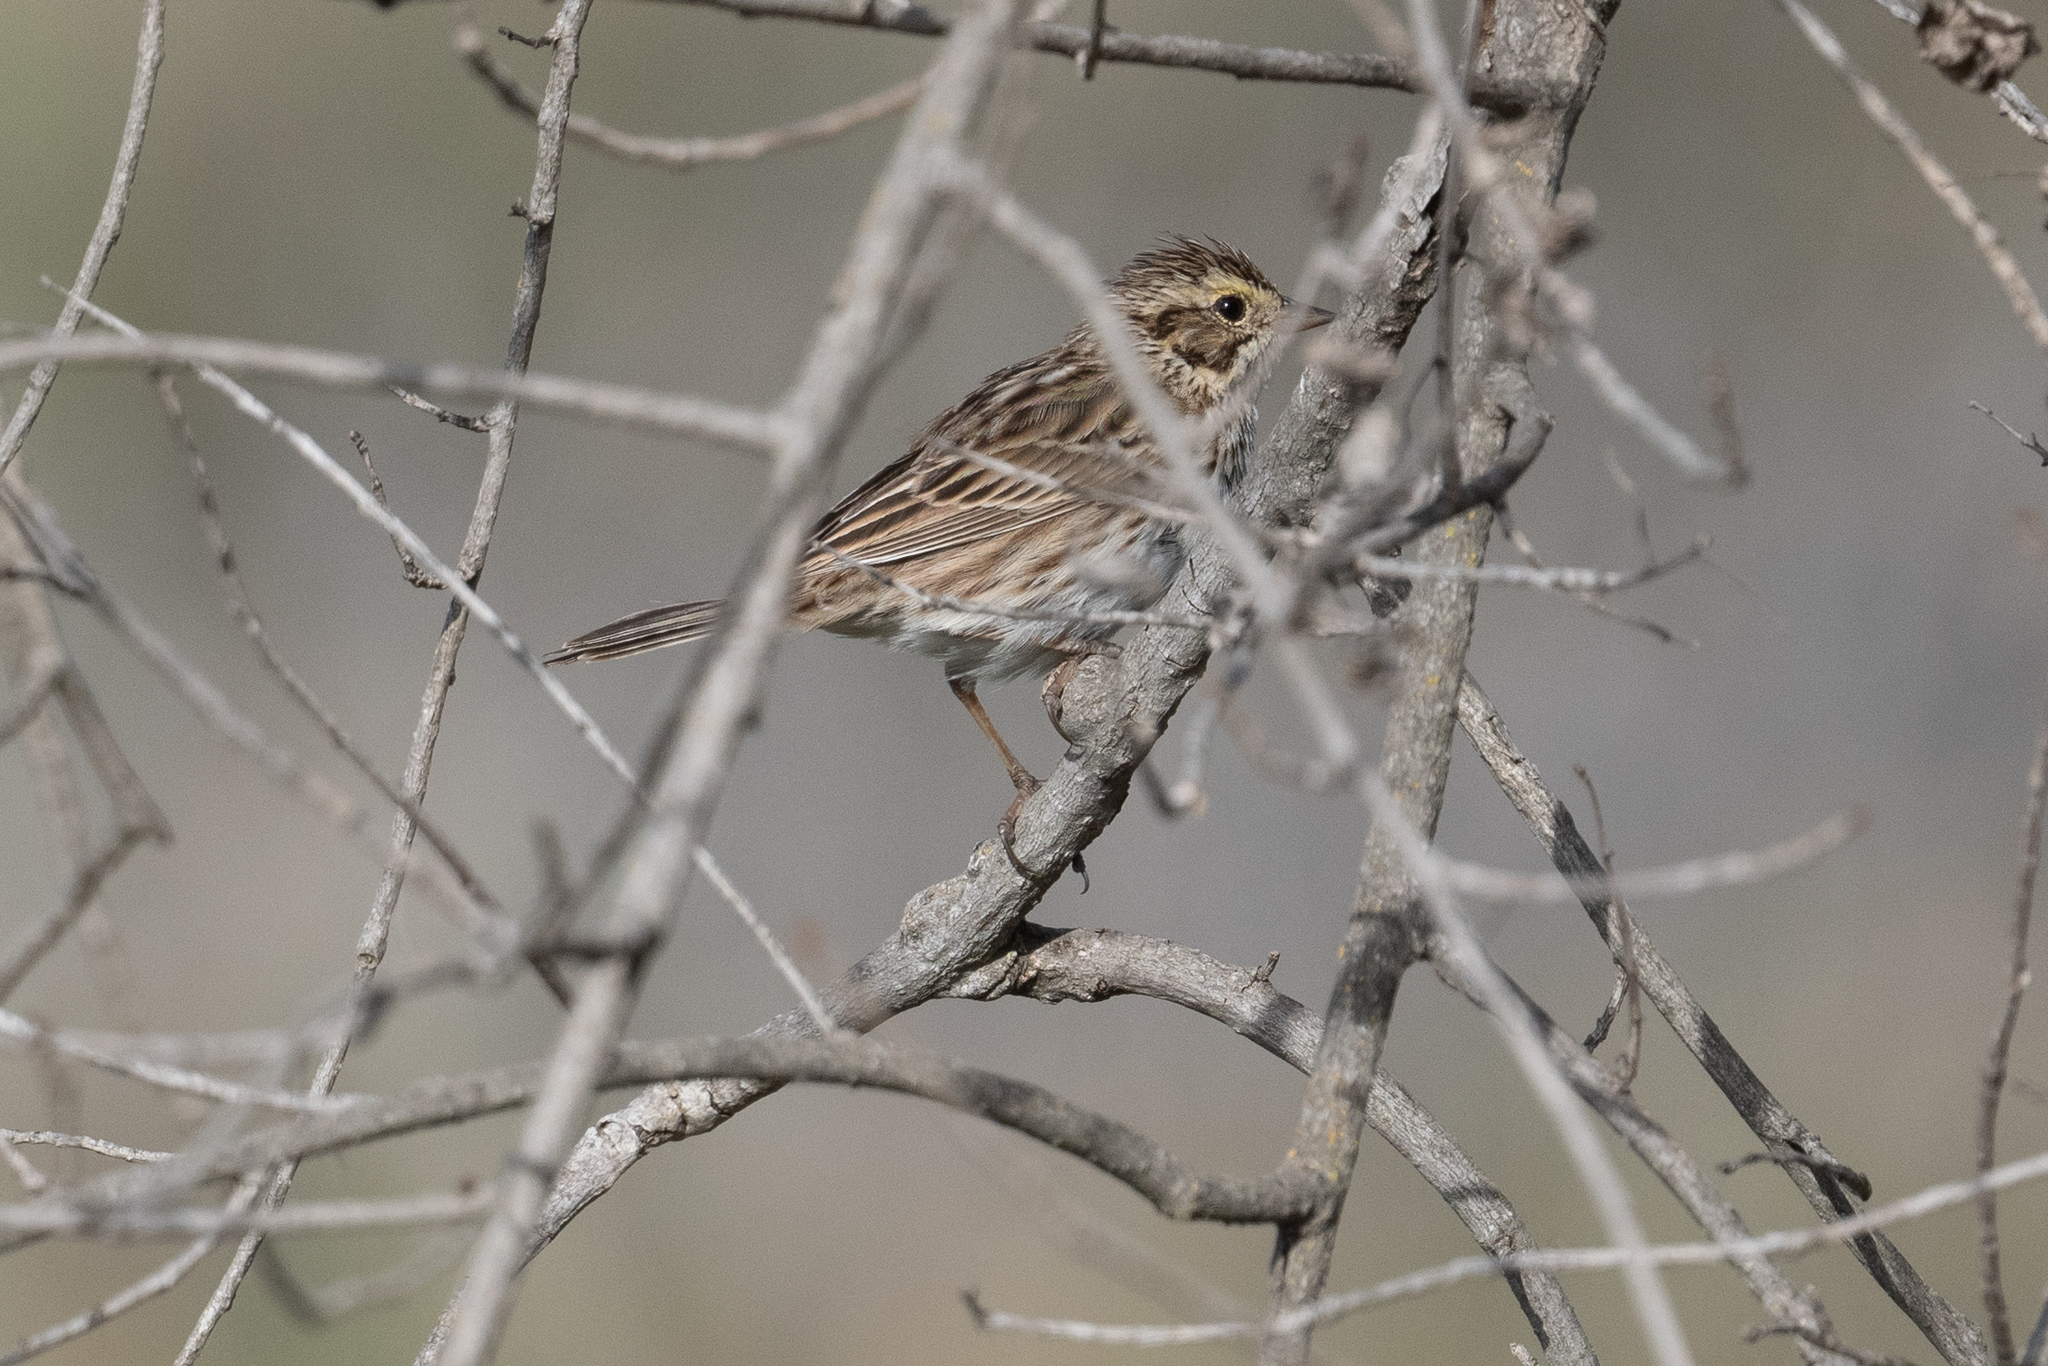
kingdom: Animalia
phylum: Chordata
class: Aves
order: Passeriformes
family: Passerellidae
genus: Passerculus
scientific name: Passerculus sandwichensis
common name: Savannah sparrow
